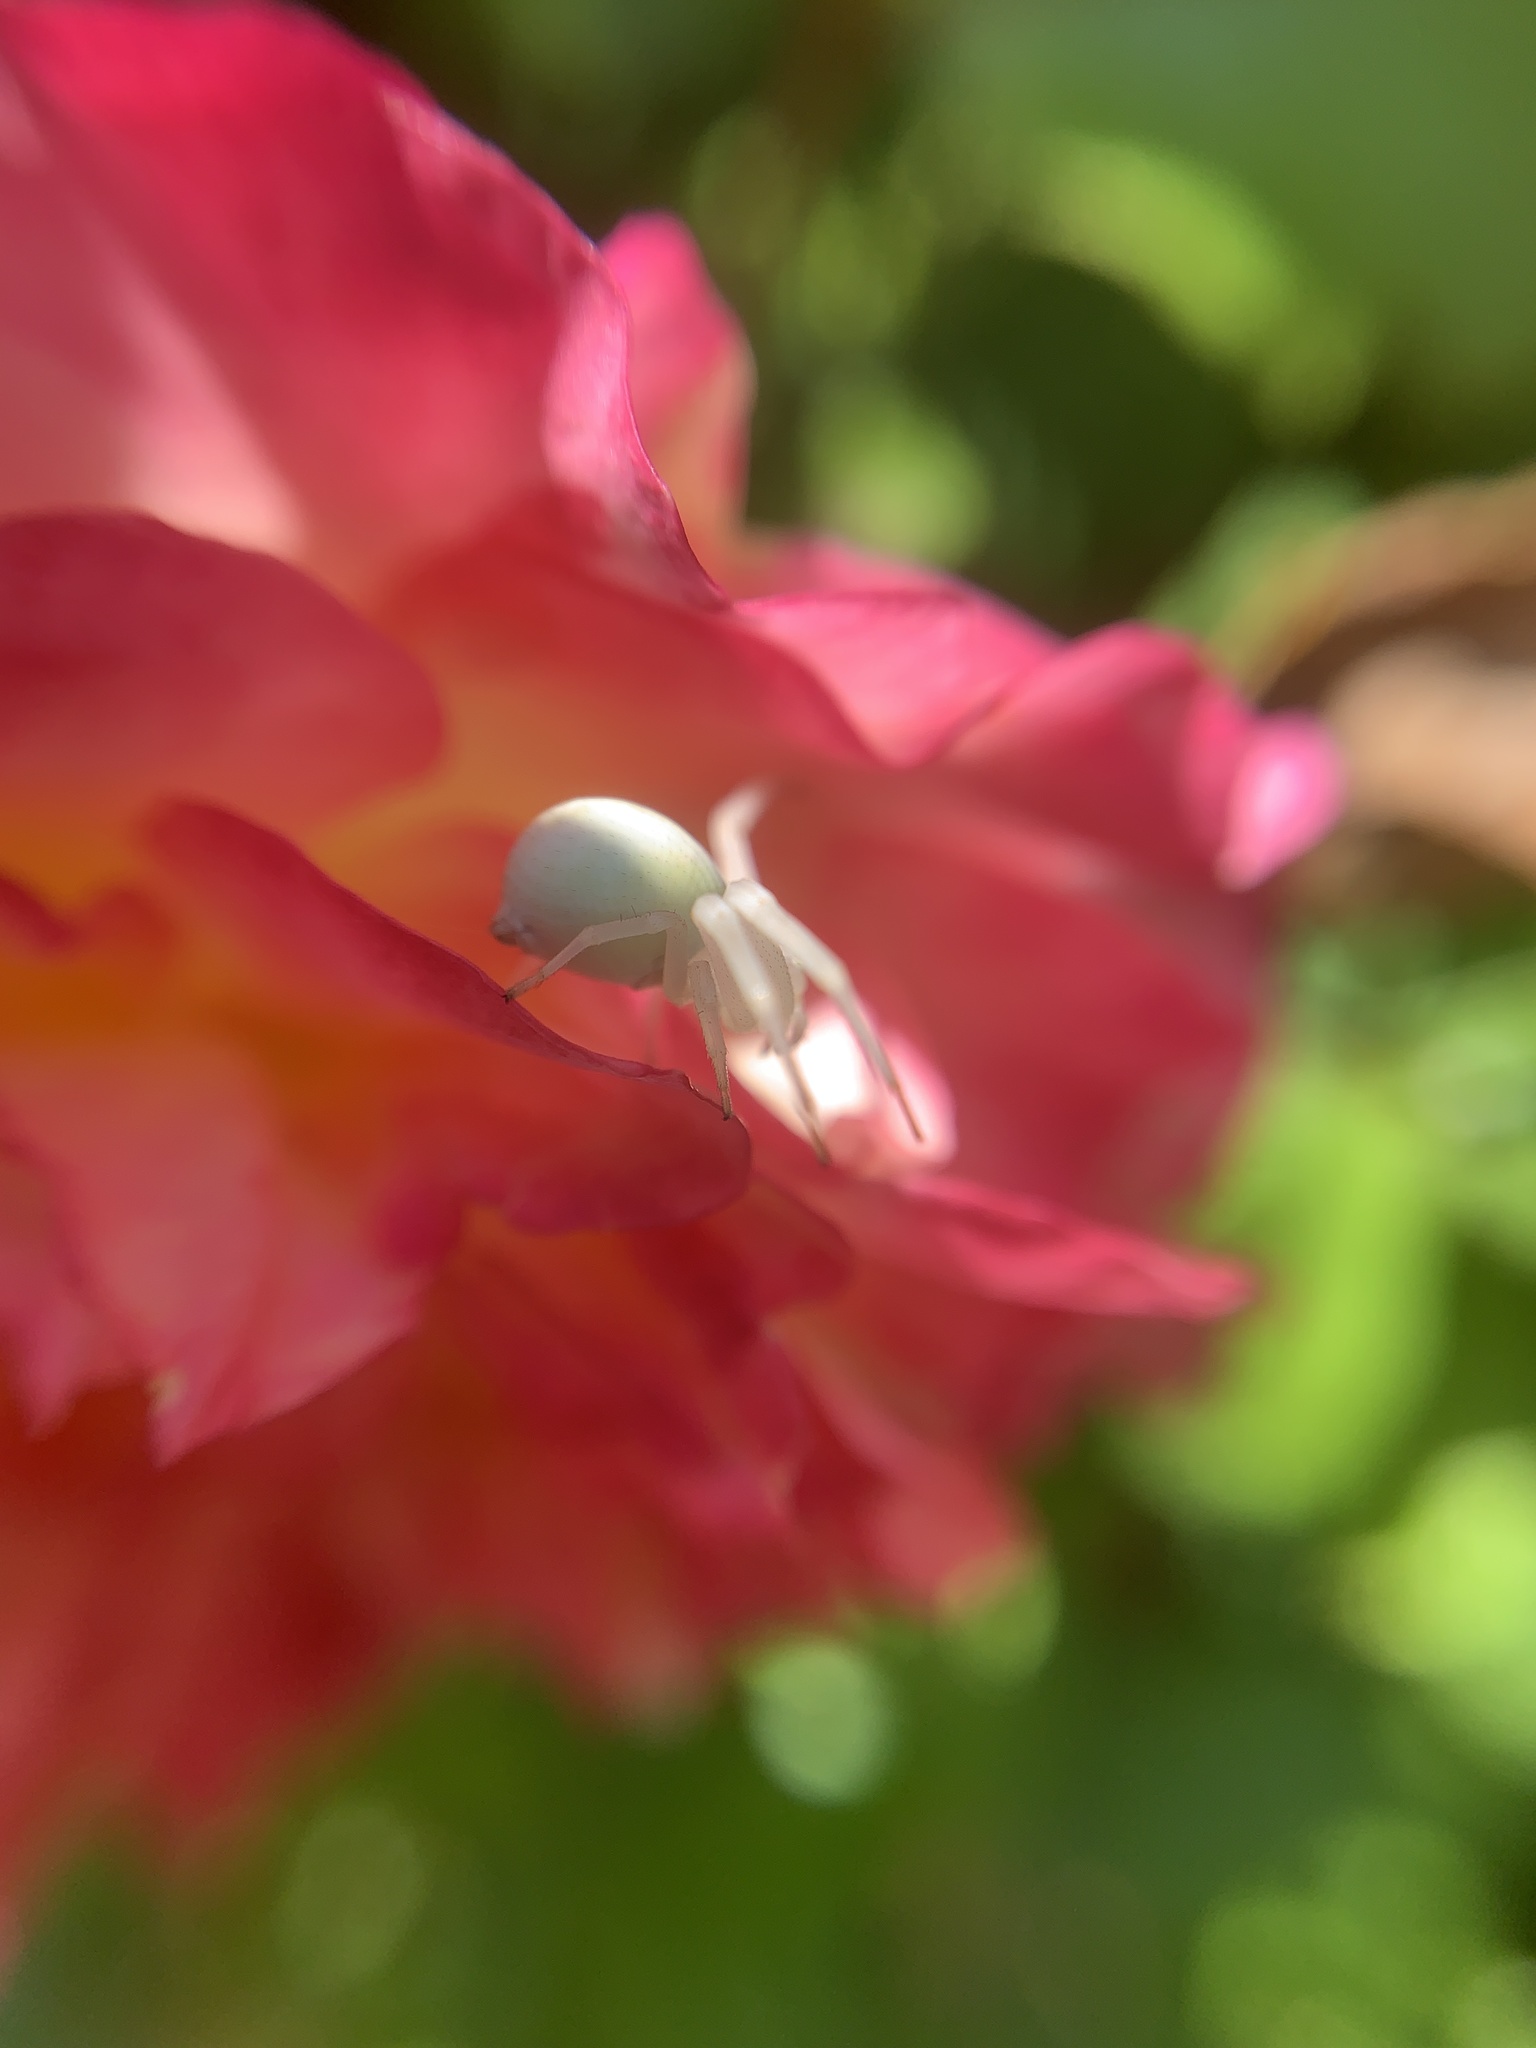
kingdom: Animalia
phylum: Arthropoda
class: Arachnida
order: Araneae
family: Thomisidae
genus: Misumena
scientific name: Misumena vatia
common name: Goldenrod crab spider
